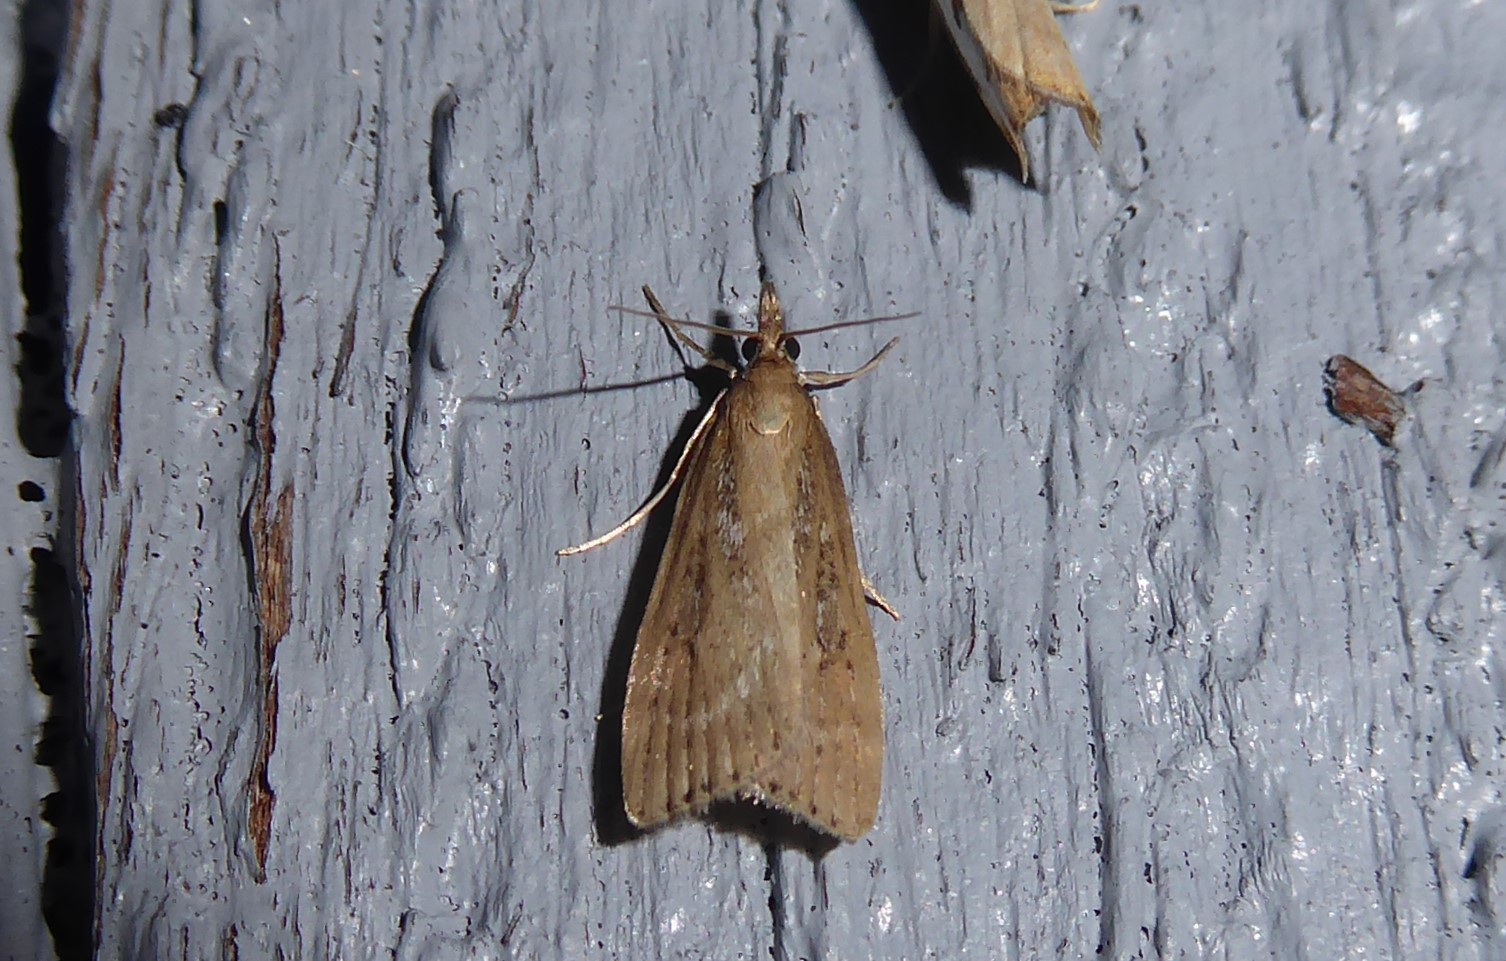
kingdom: Animalia
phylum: Arthropoda
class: Insecta
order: Lepidoptera
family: Crambidae
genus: Eudonia
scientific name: Eudonia octophora
